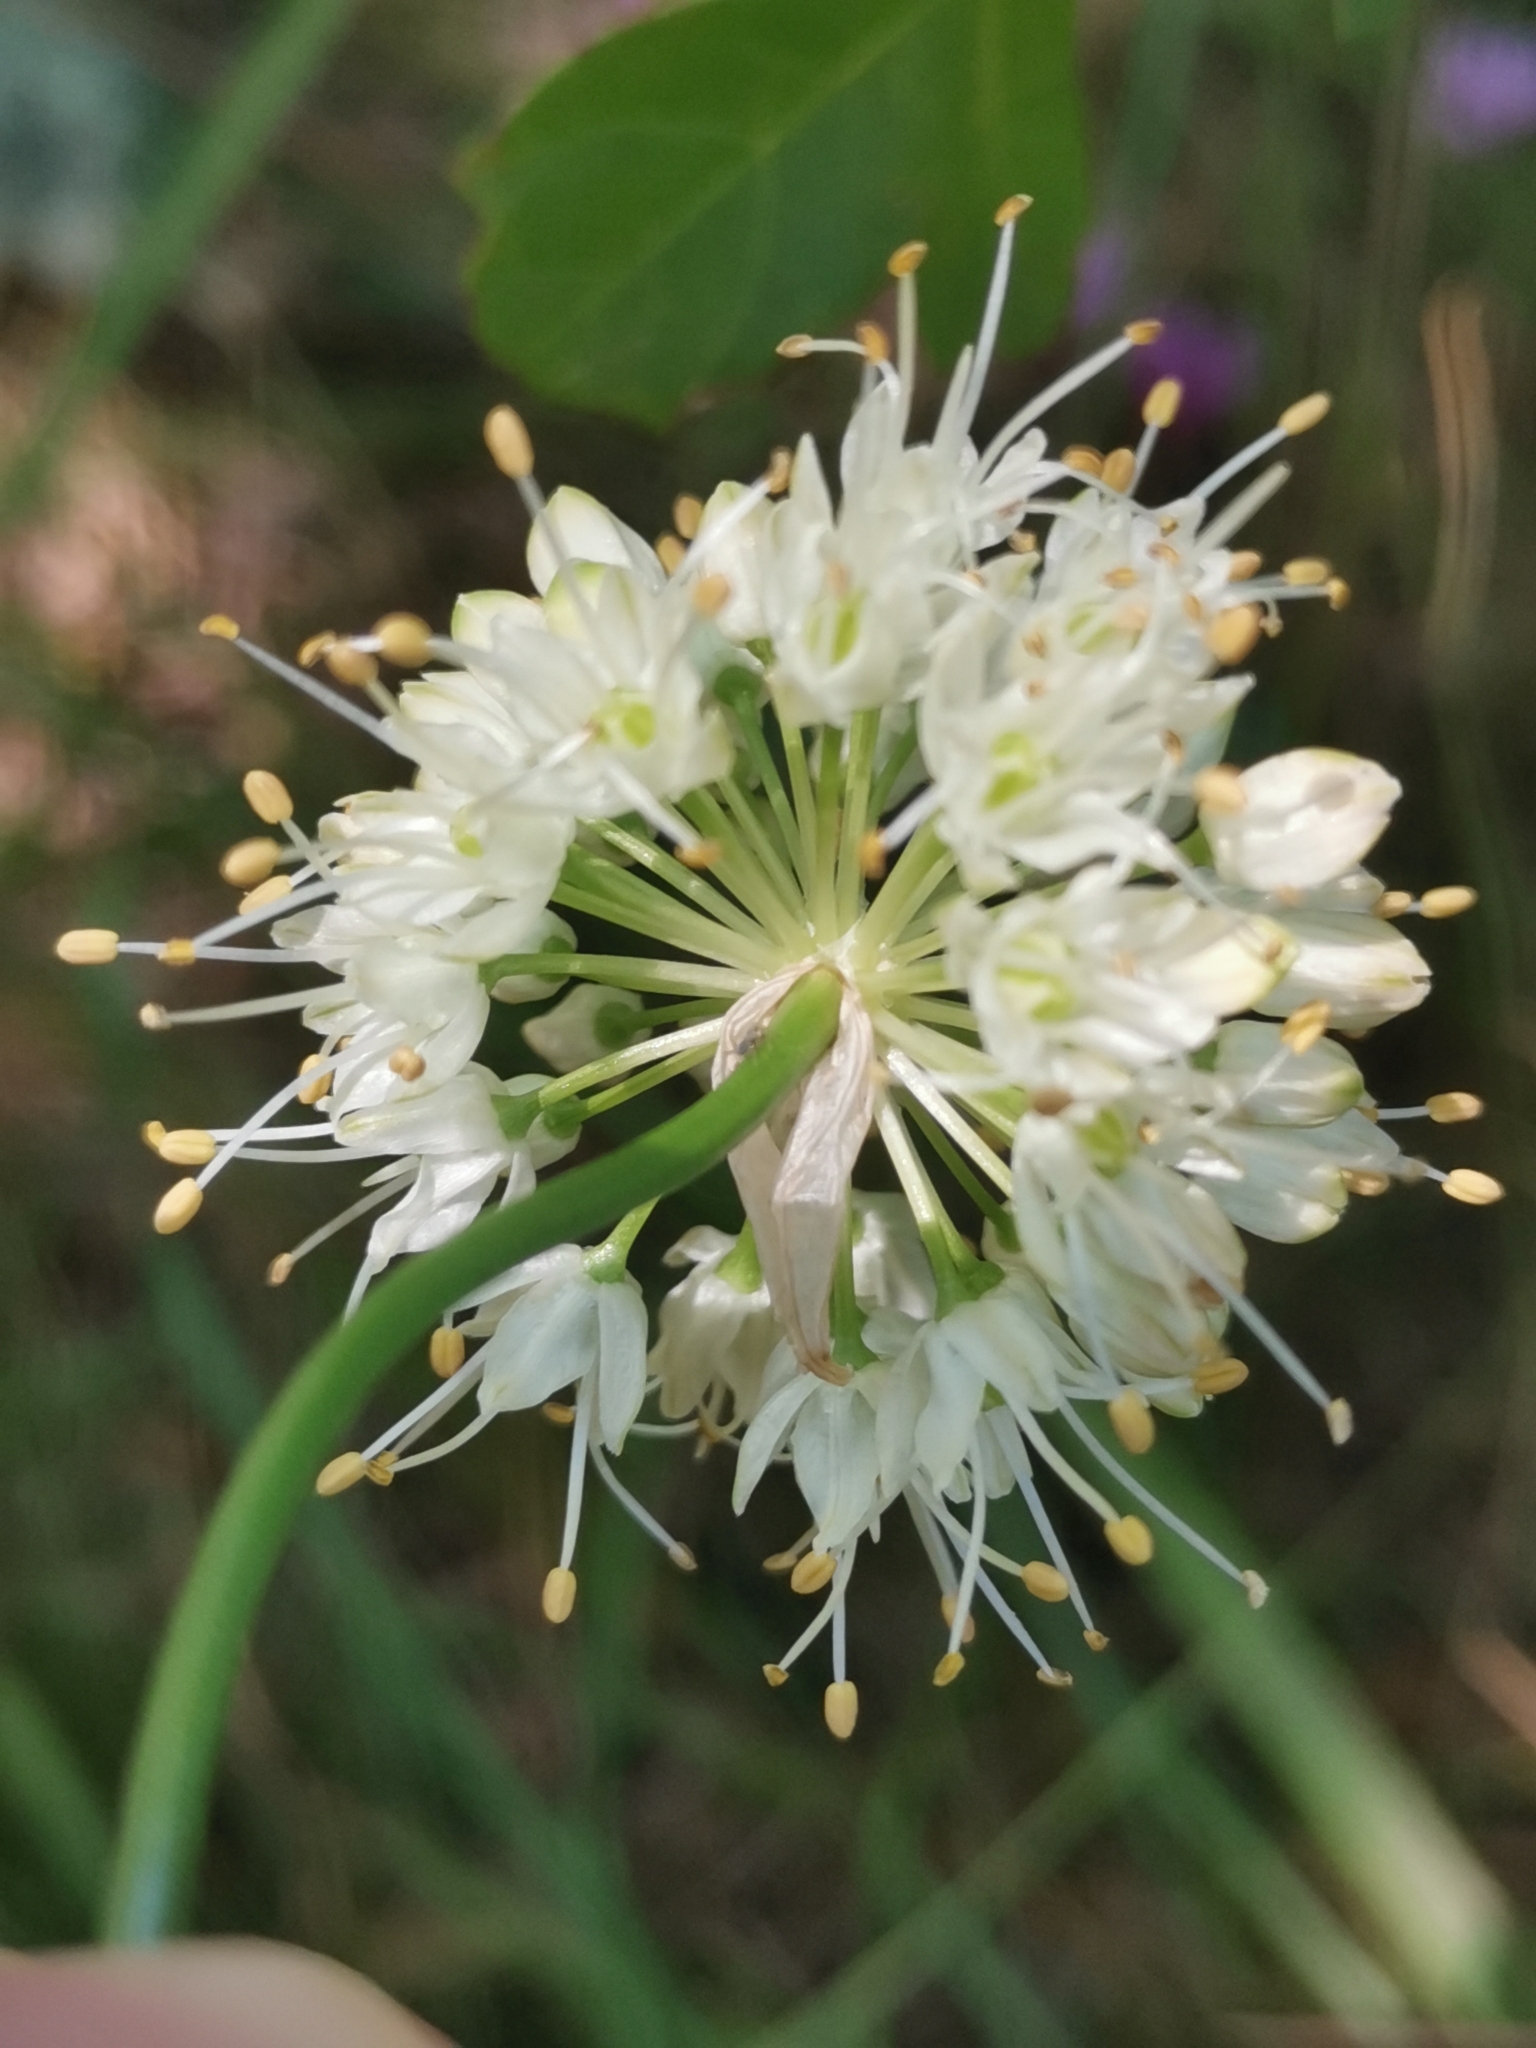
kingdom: Plantae
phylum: Tracheophyta
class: Liliopsida
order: Asparagales
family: Amaryllidaceae
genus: Allium
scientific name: Allium ericetorum
